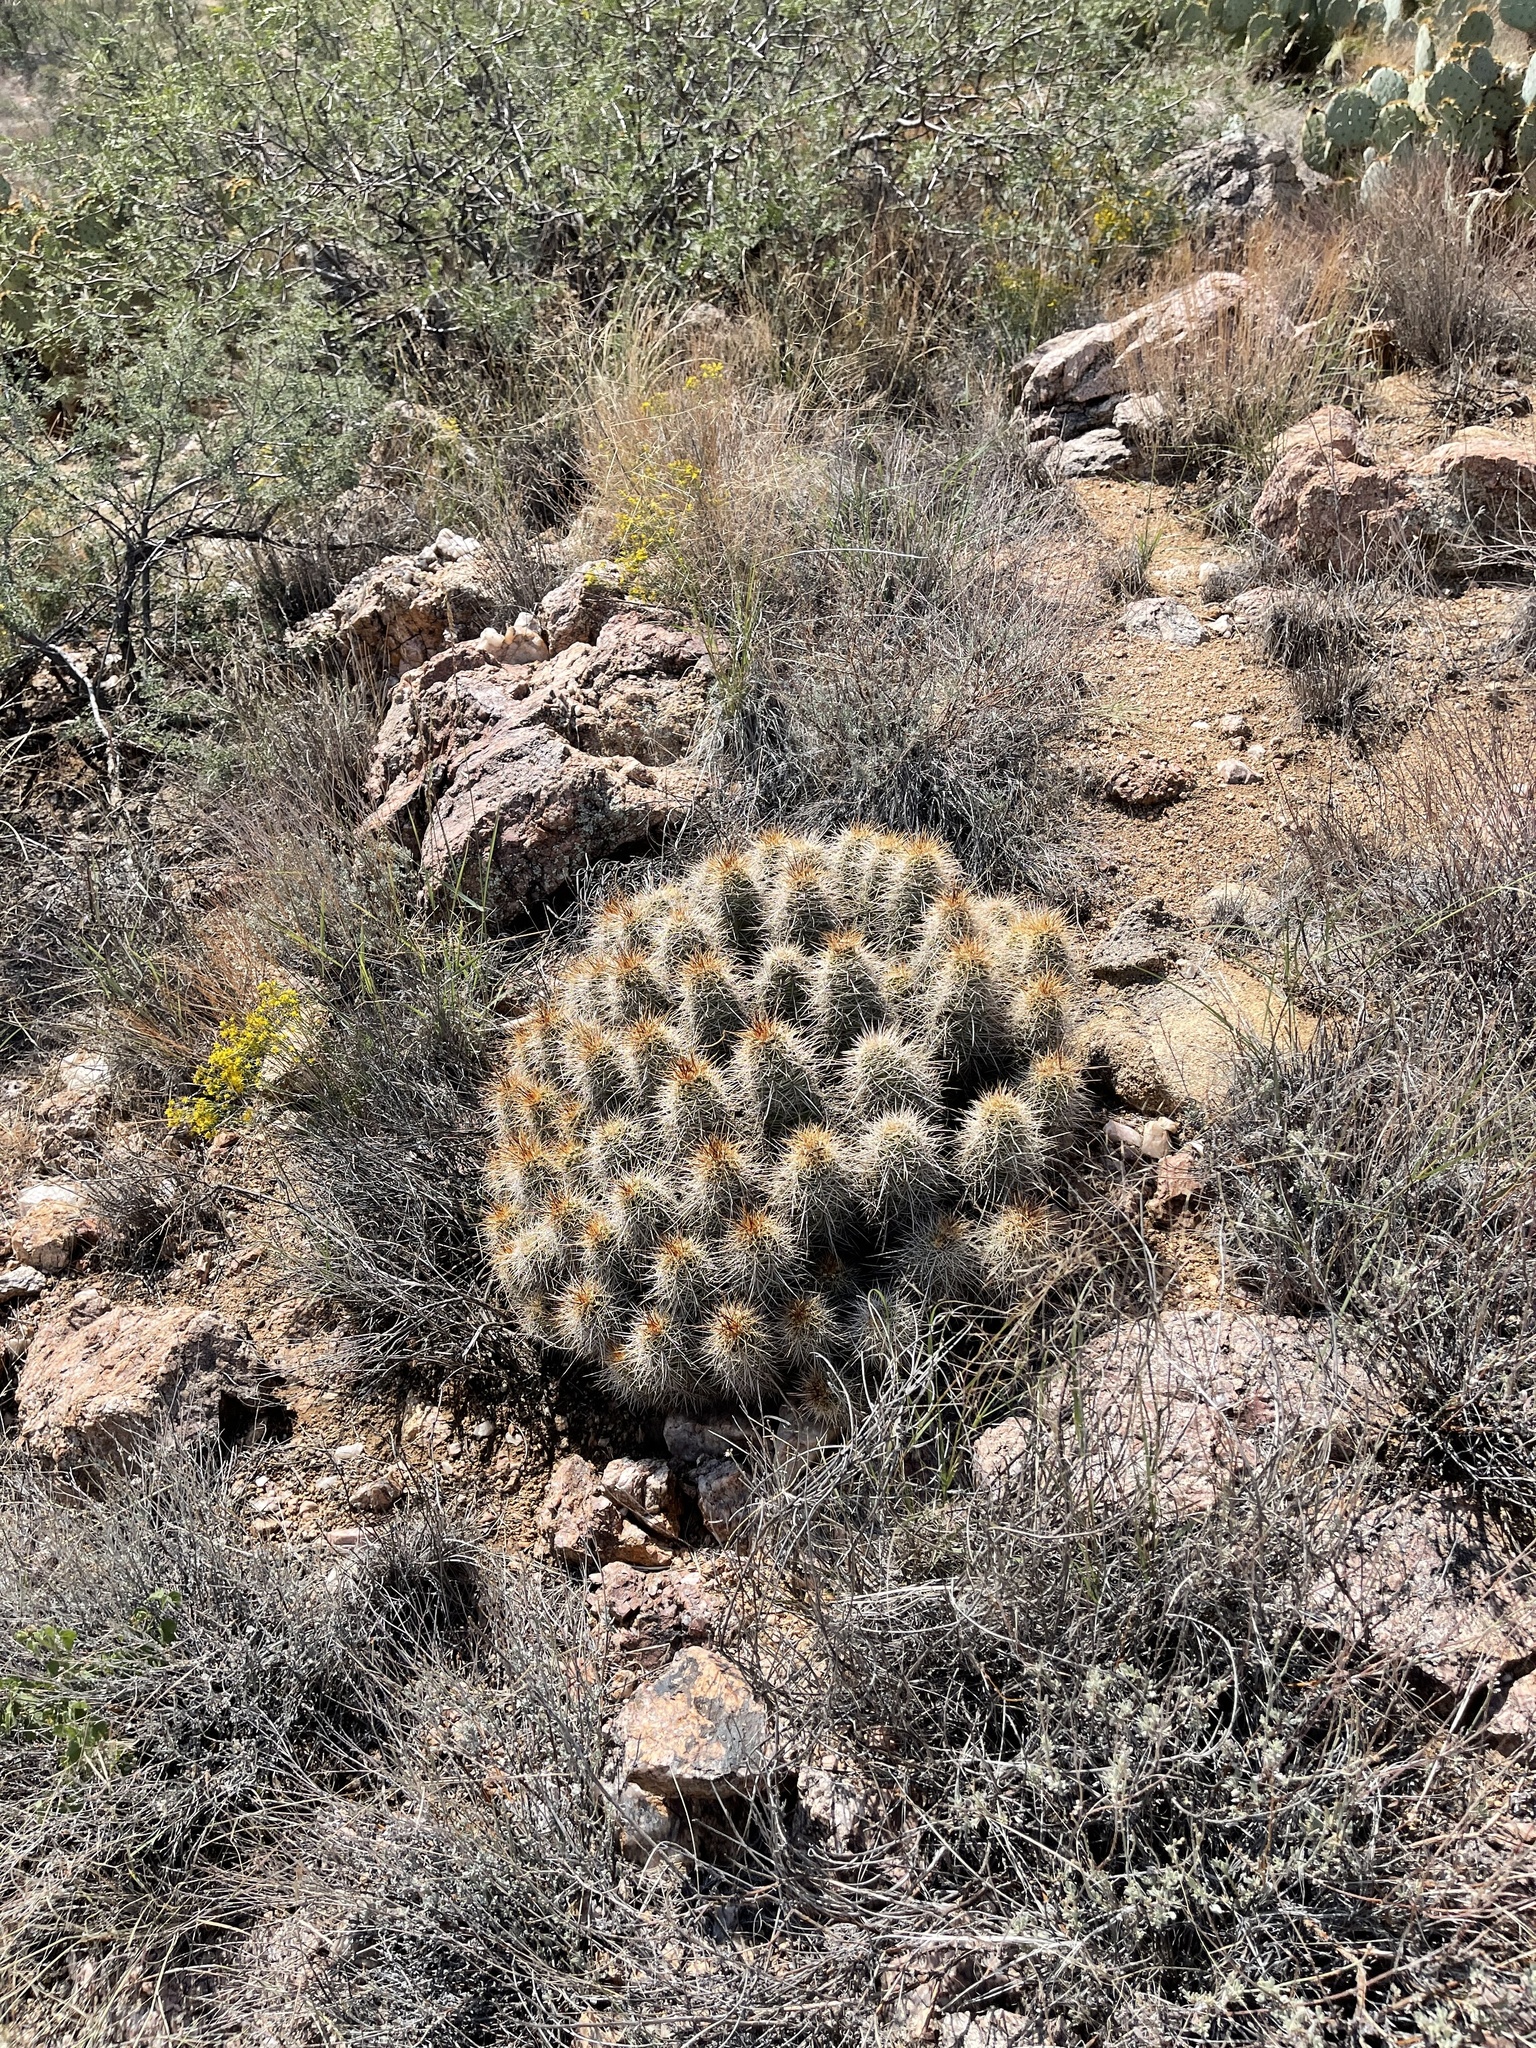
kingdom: Plantae
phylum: Tracheophyta
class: Magnoliopsida
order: Caryophyllales
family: Cactaceae
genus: Echinocereus
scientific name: Echinocereus bakeri
